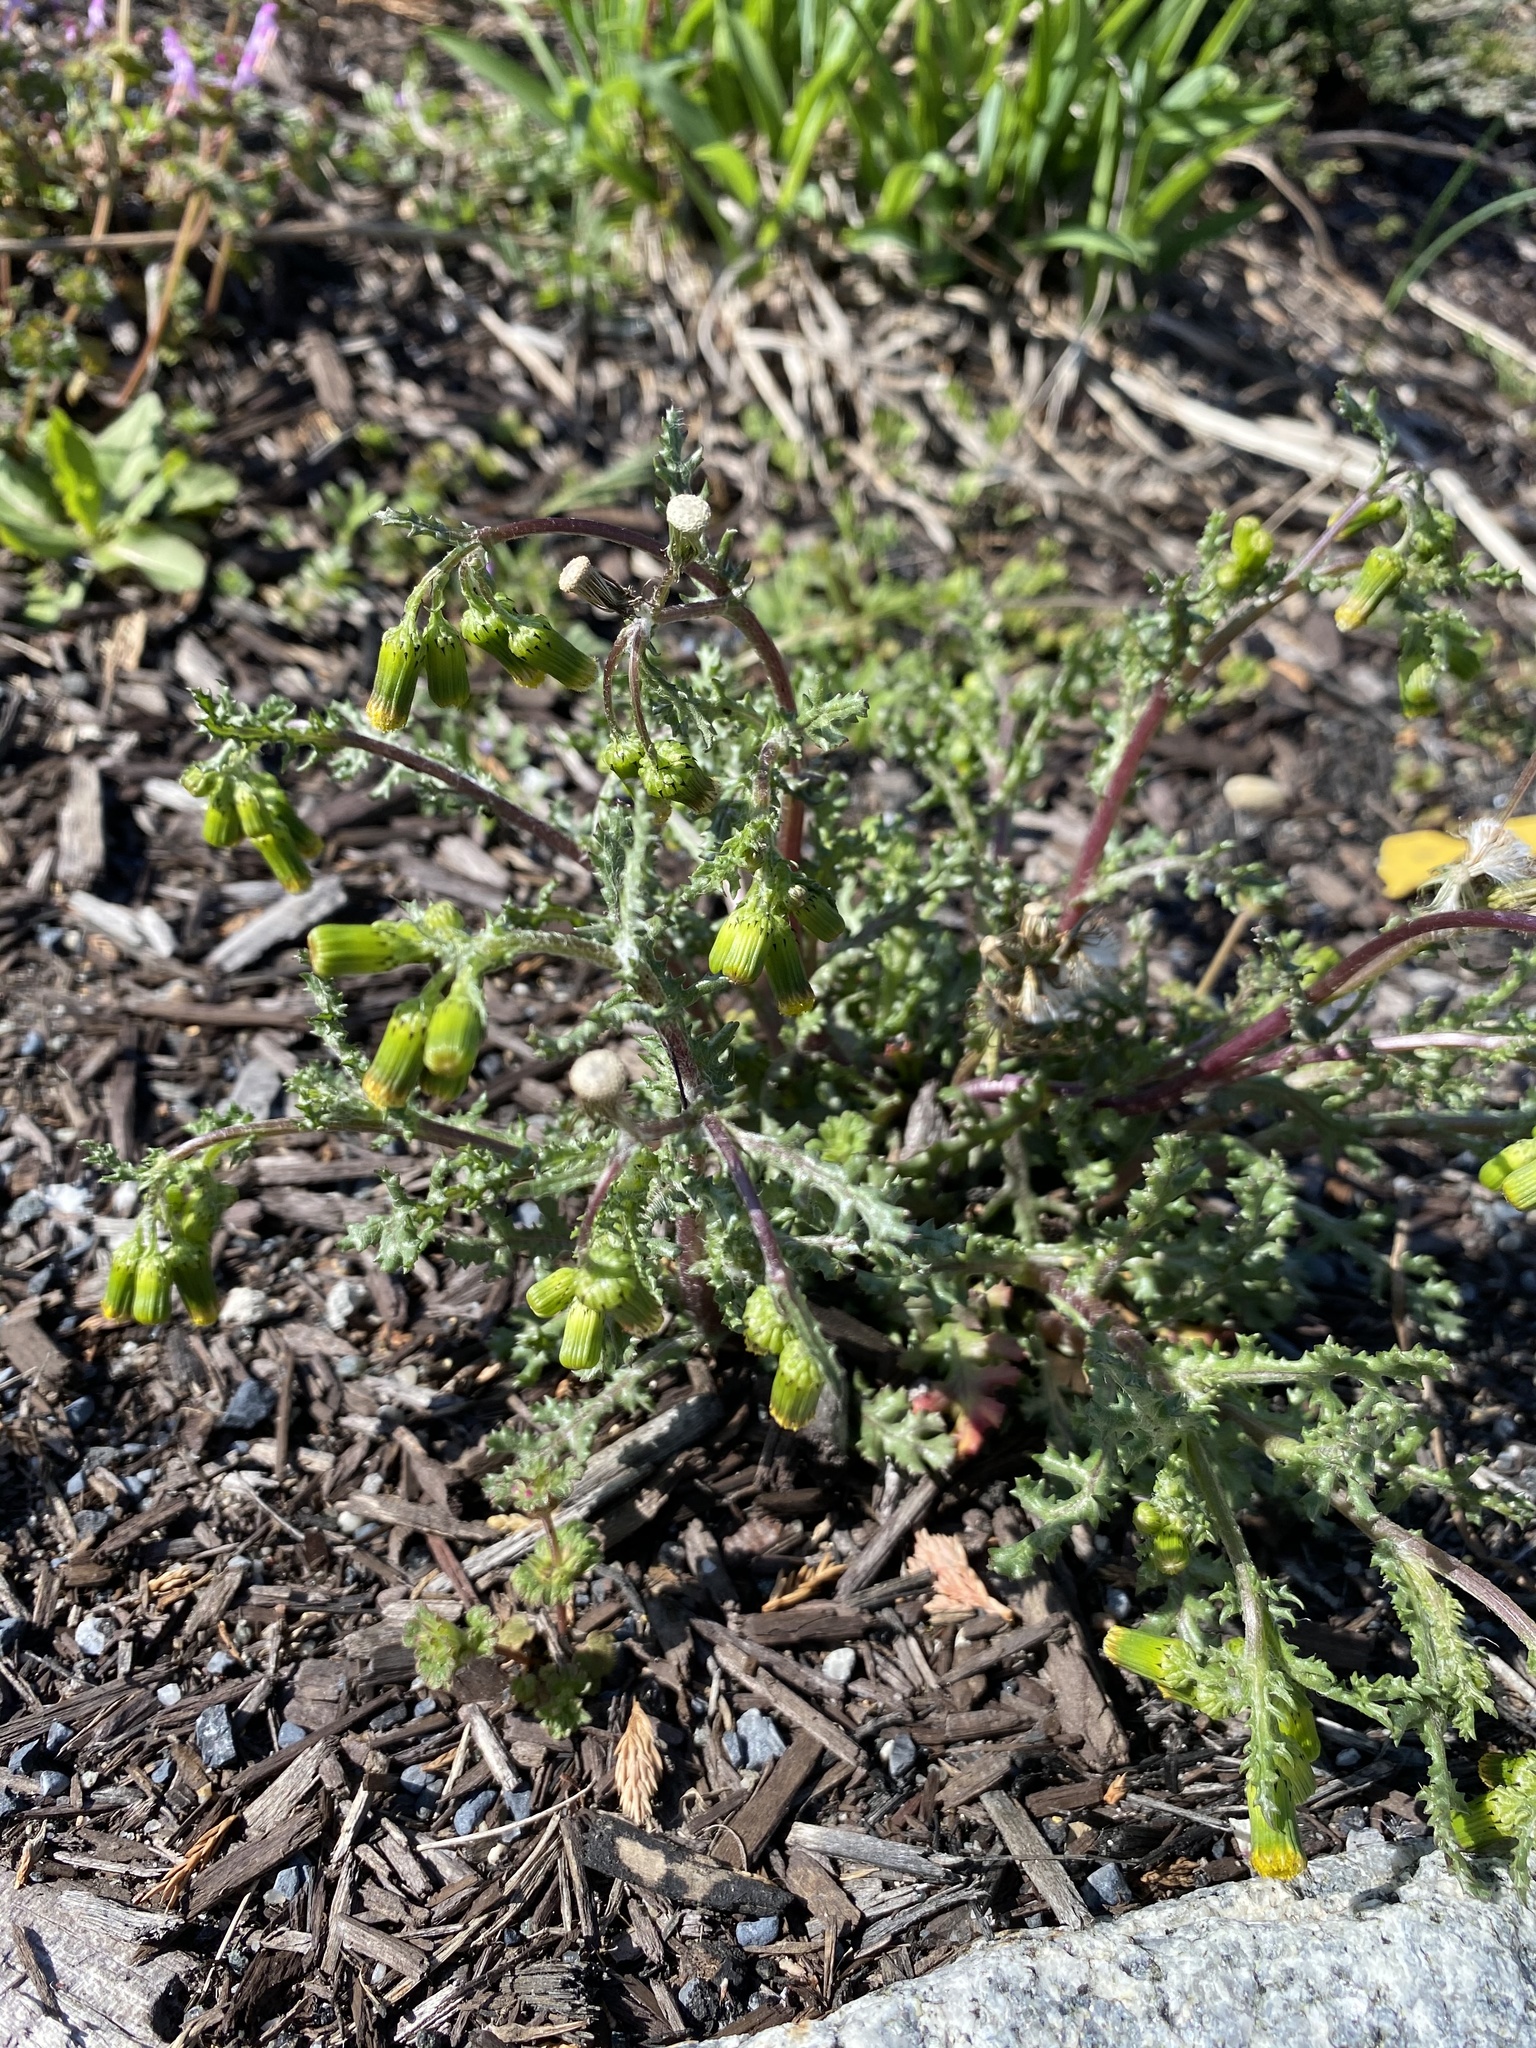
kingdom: Plantae
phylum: Tracheophyta
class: Magnoliopsida
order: Asterales
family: Asteraceae
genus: Senecio
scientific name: Senecio vulgaris
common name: Old-man-in-the-spring
